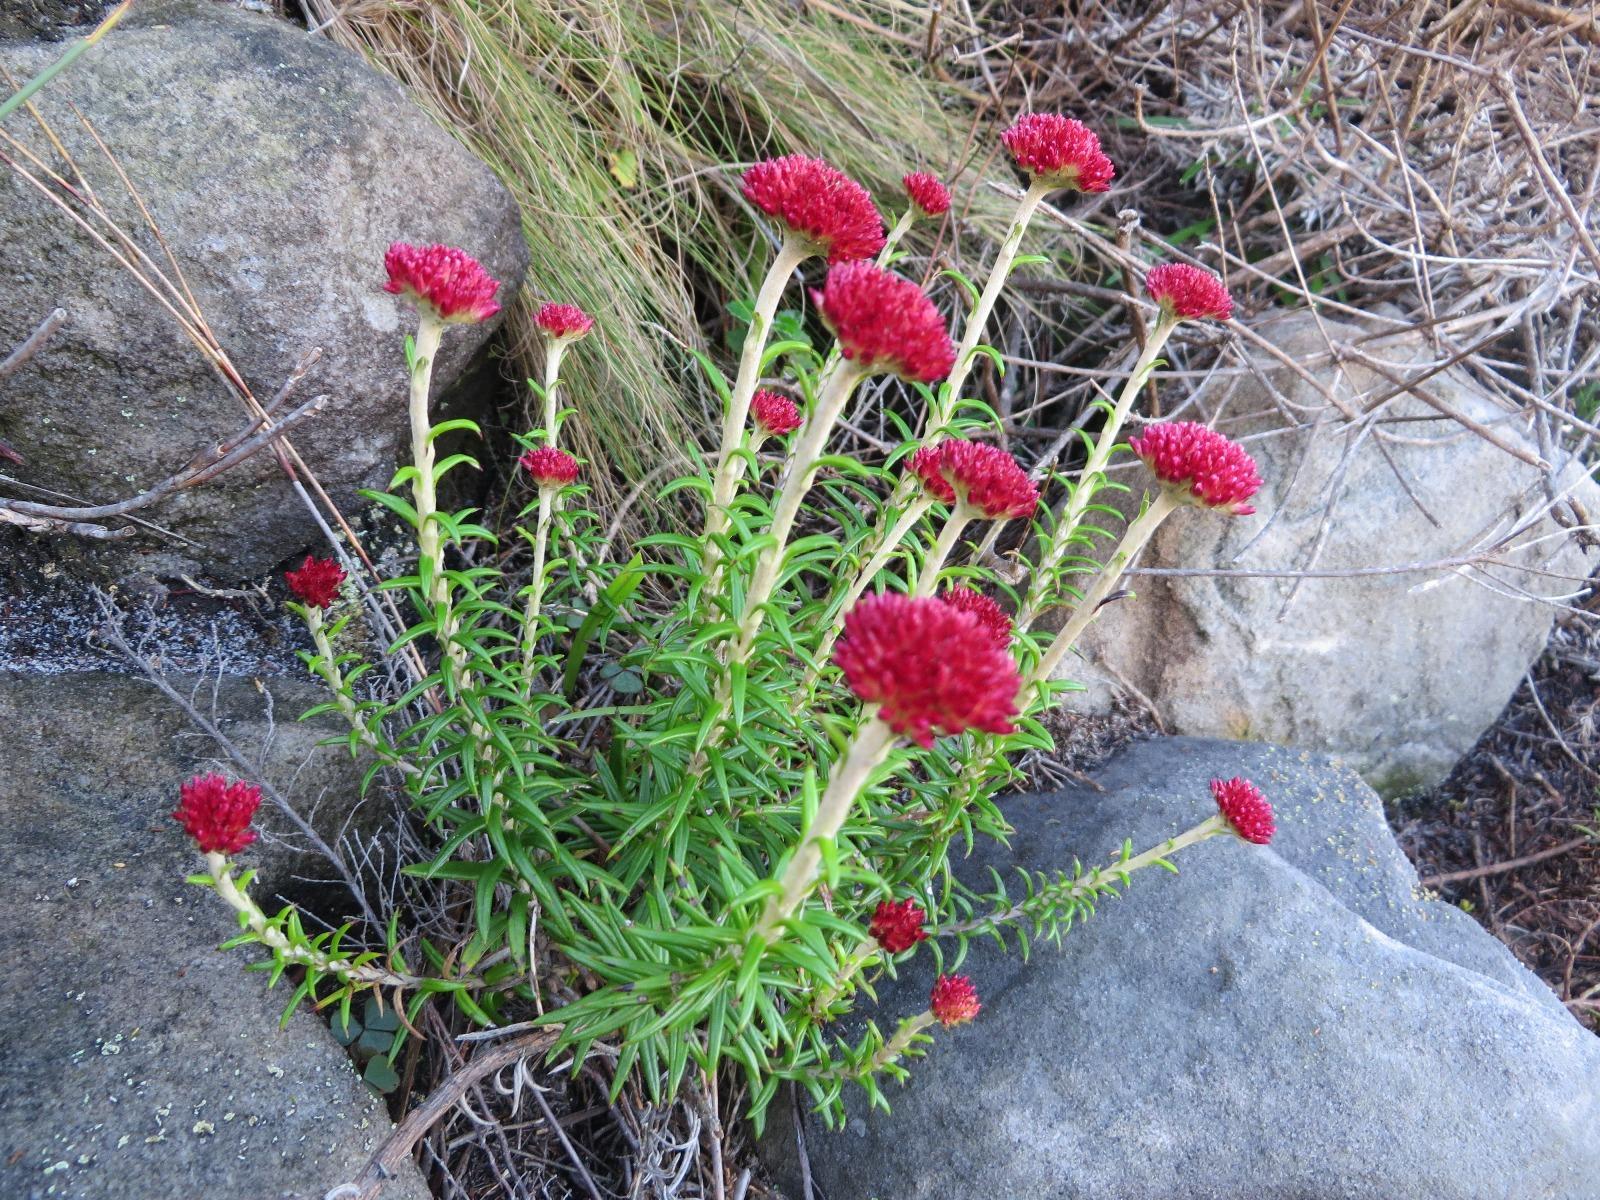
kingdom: Plantae
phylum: Tracheophyta
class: Magnoliopsida
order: Asterales
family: Asteraceae
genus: Anaxeton
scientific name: Anaxeton arborescens
